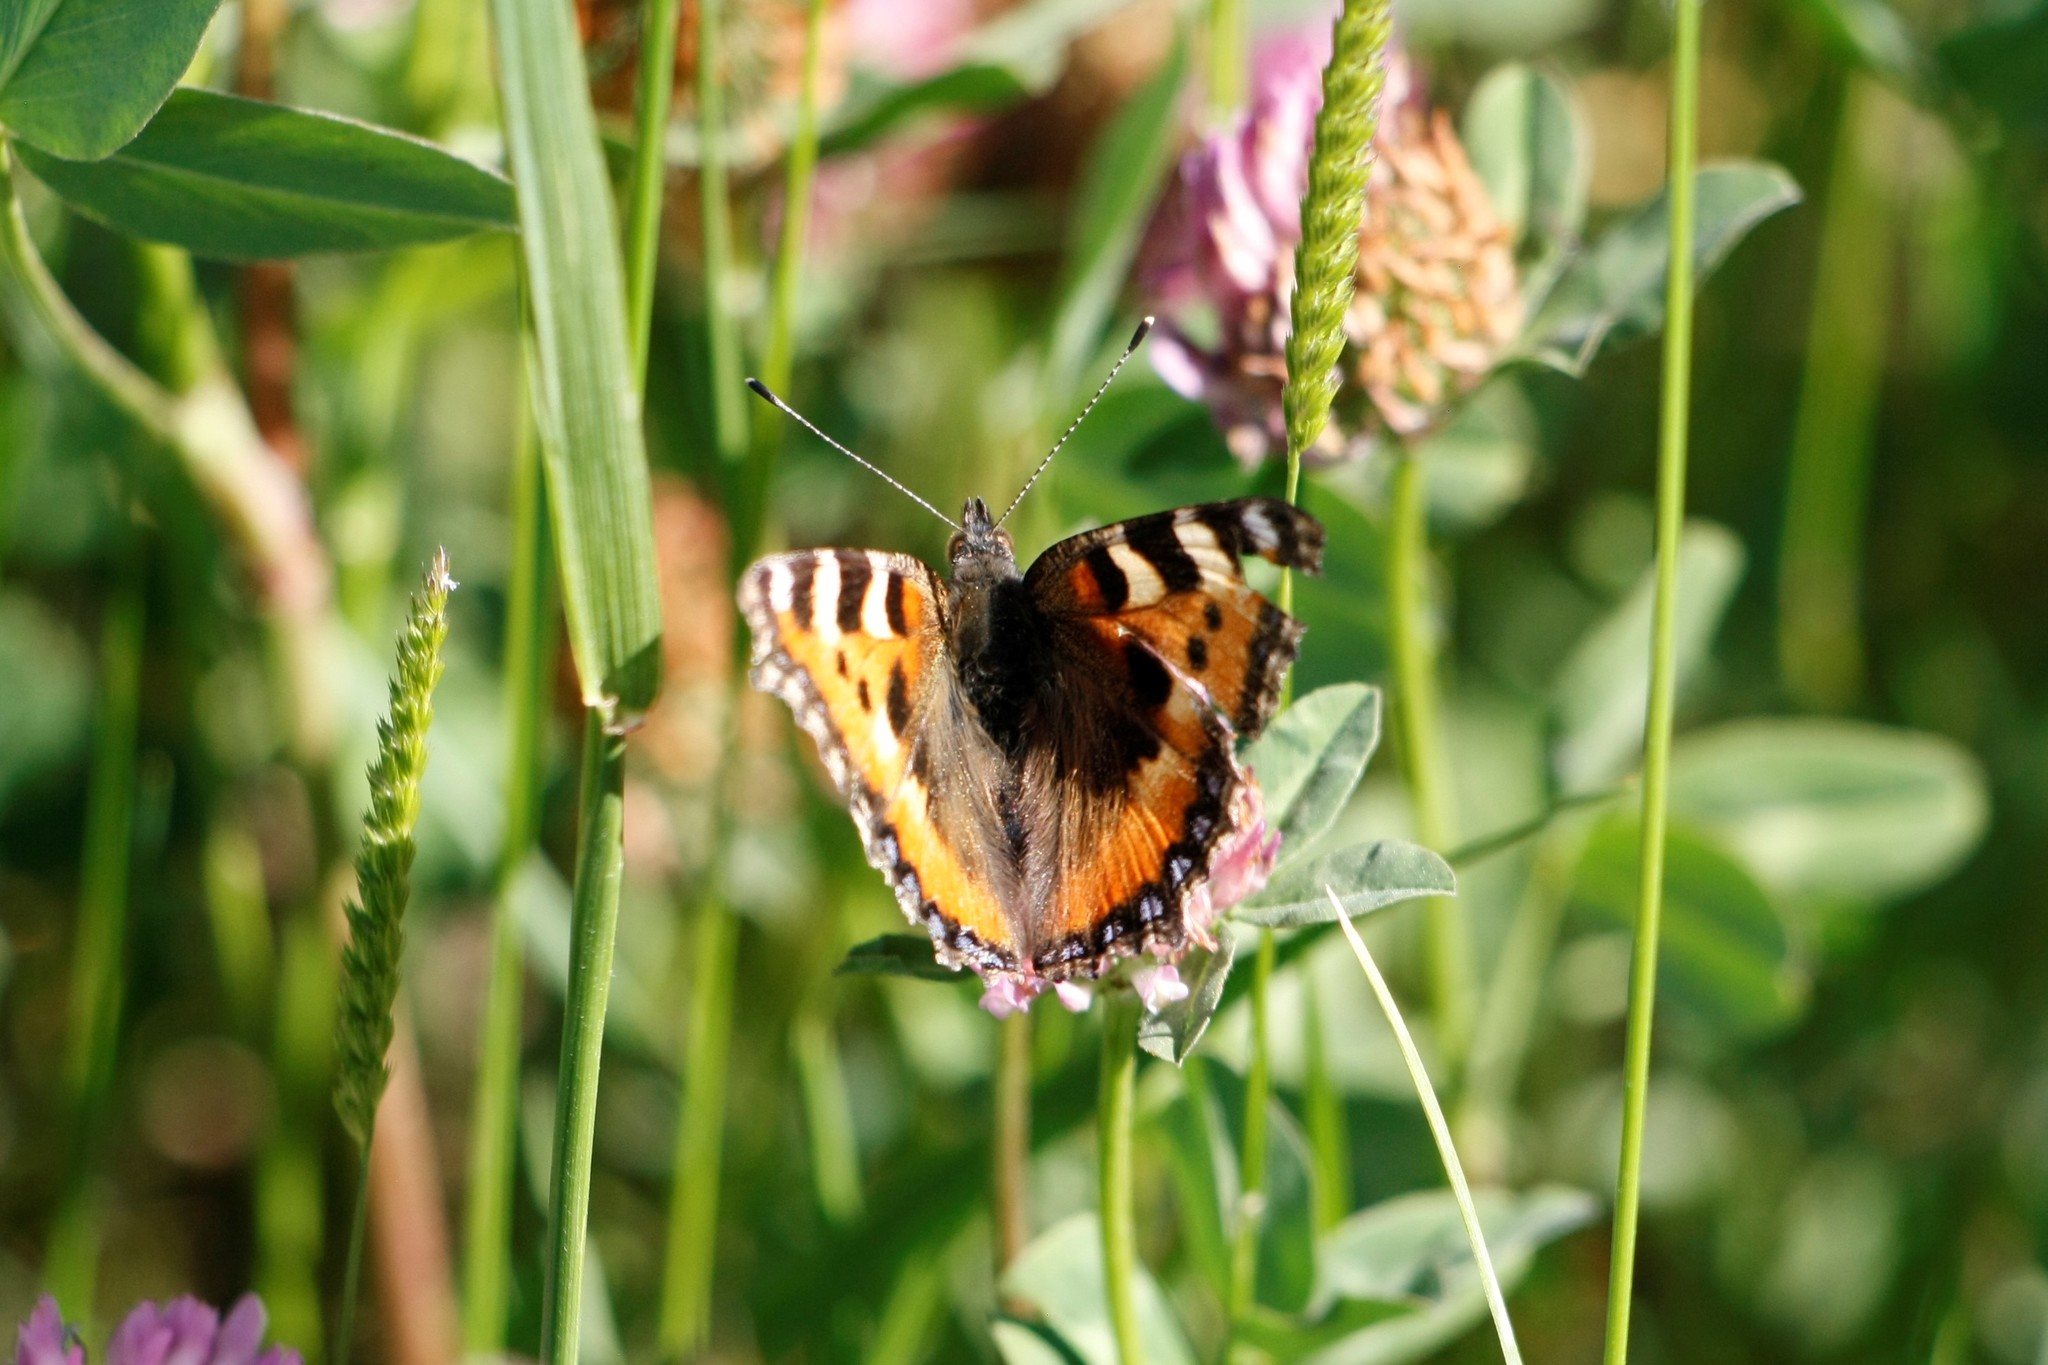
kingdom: Animalia
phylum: Arthropoda
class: Insecta
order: Lepidoptera
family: Nymphalidae
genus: Aglais
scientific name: Aglais urticae
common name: Small tortoiseshell
